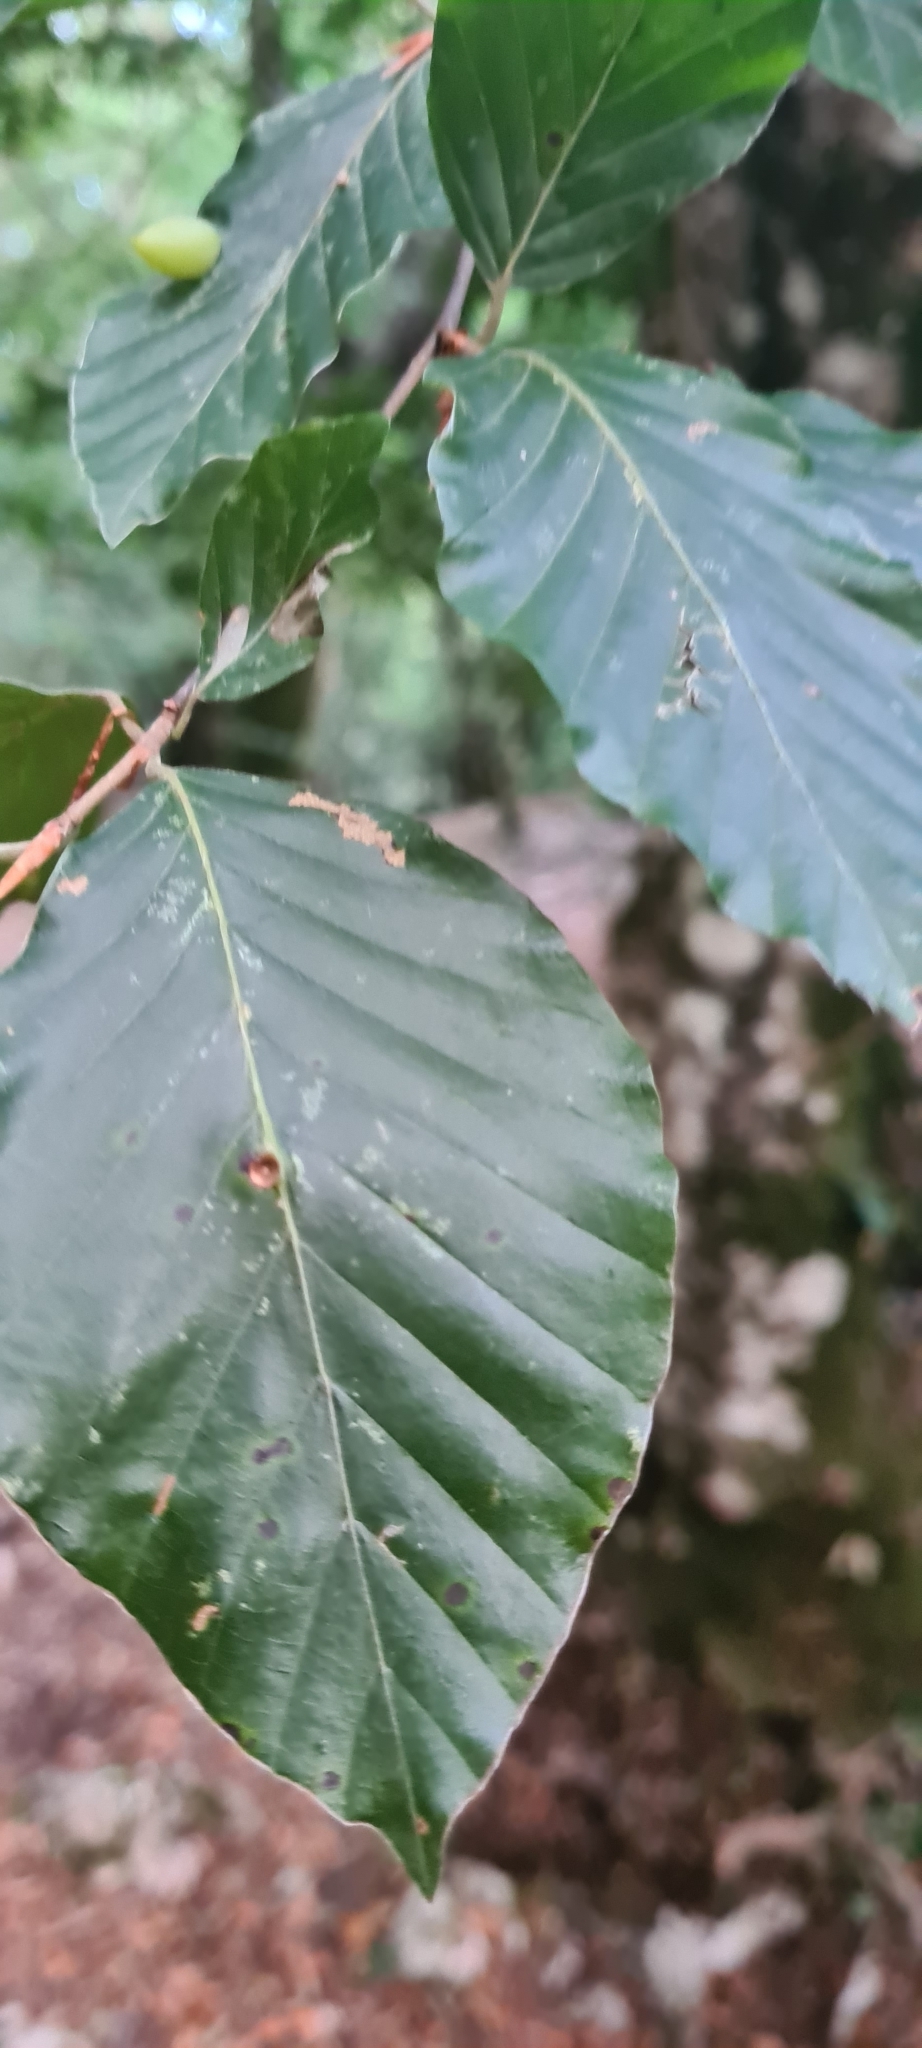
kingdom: Plantae
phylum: Tracheophyta
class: Magnoliopsida
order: Fagales
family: Fagaceae
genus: Fagus
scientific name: Fagus sylvatica
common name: Beech
